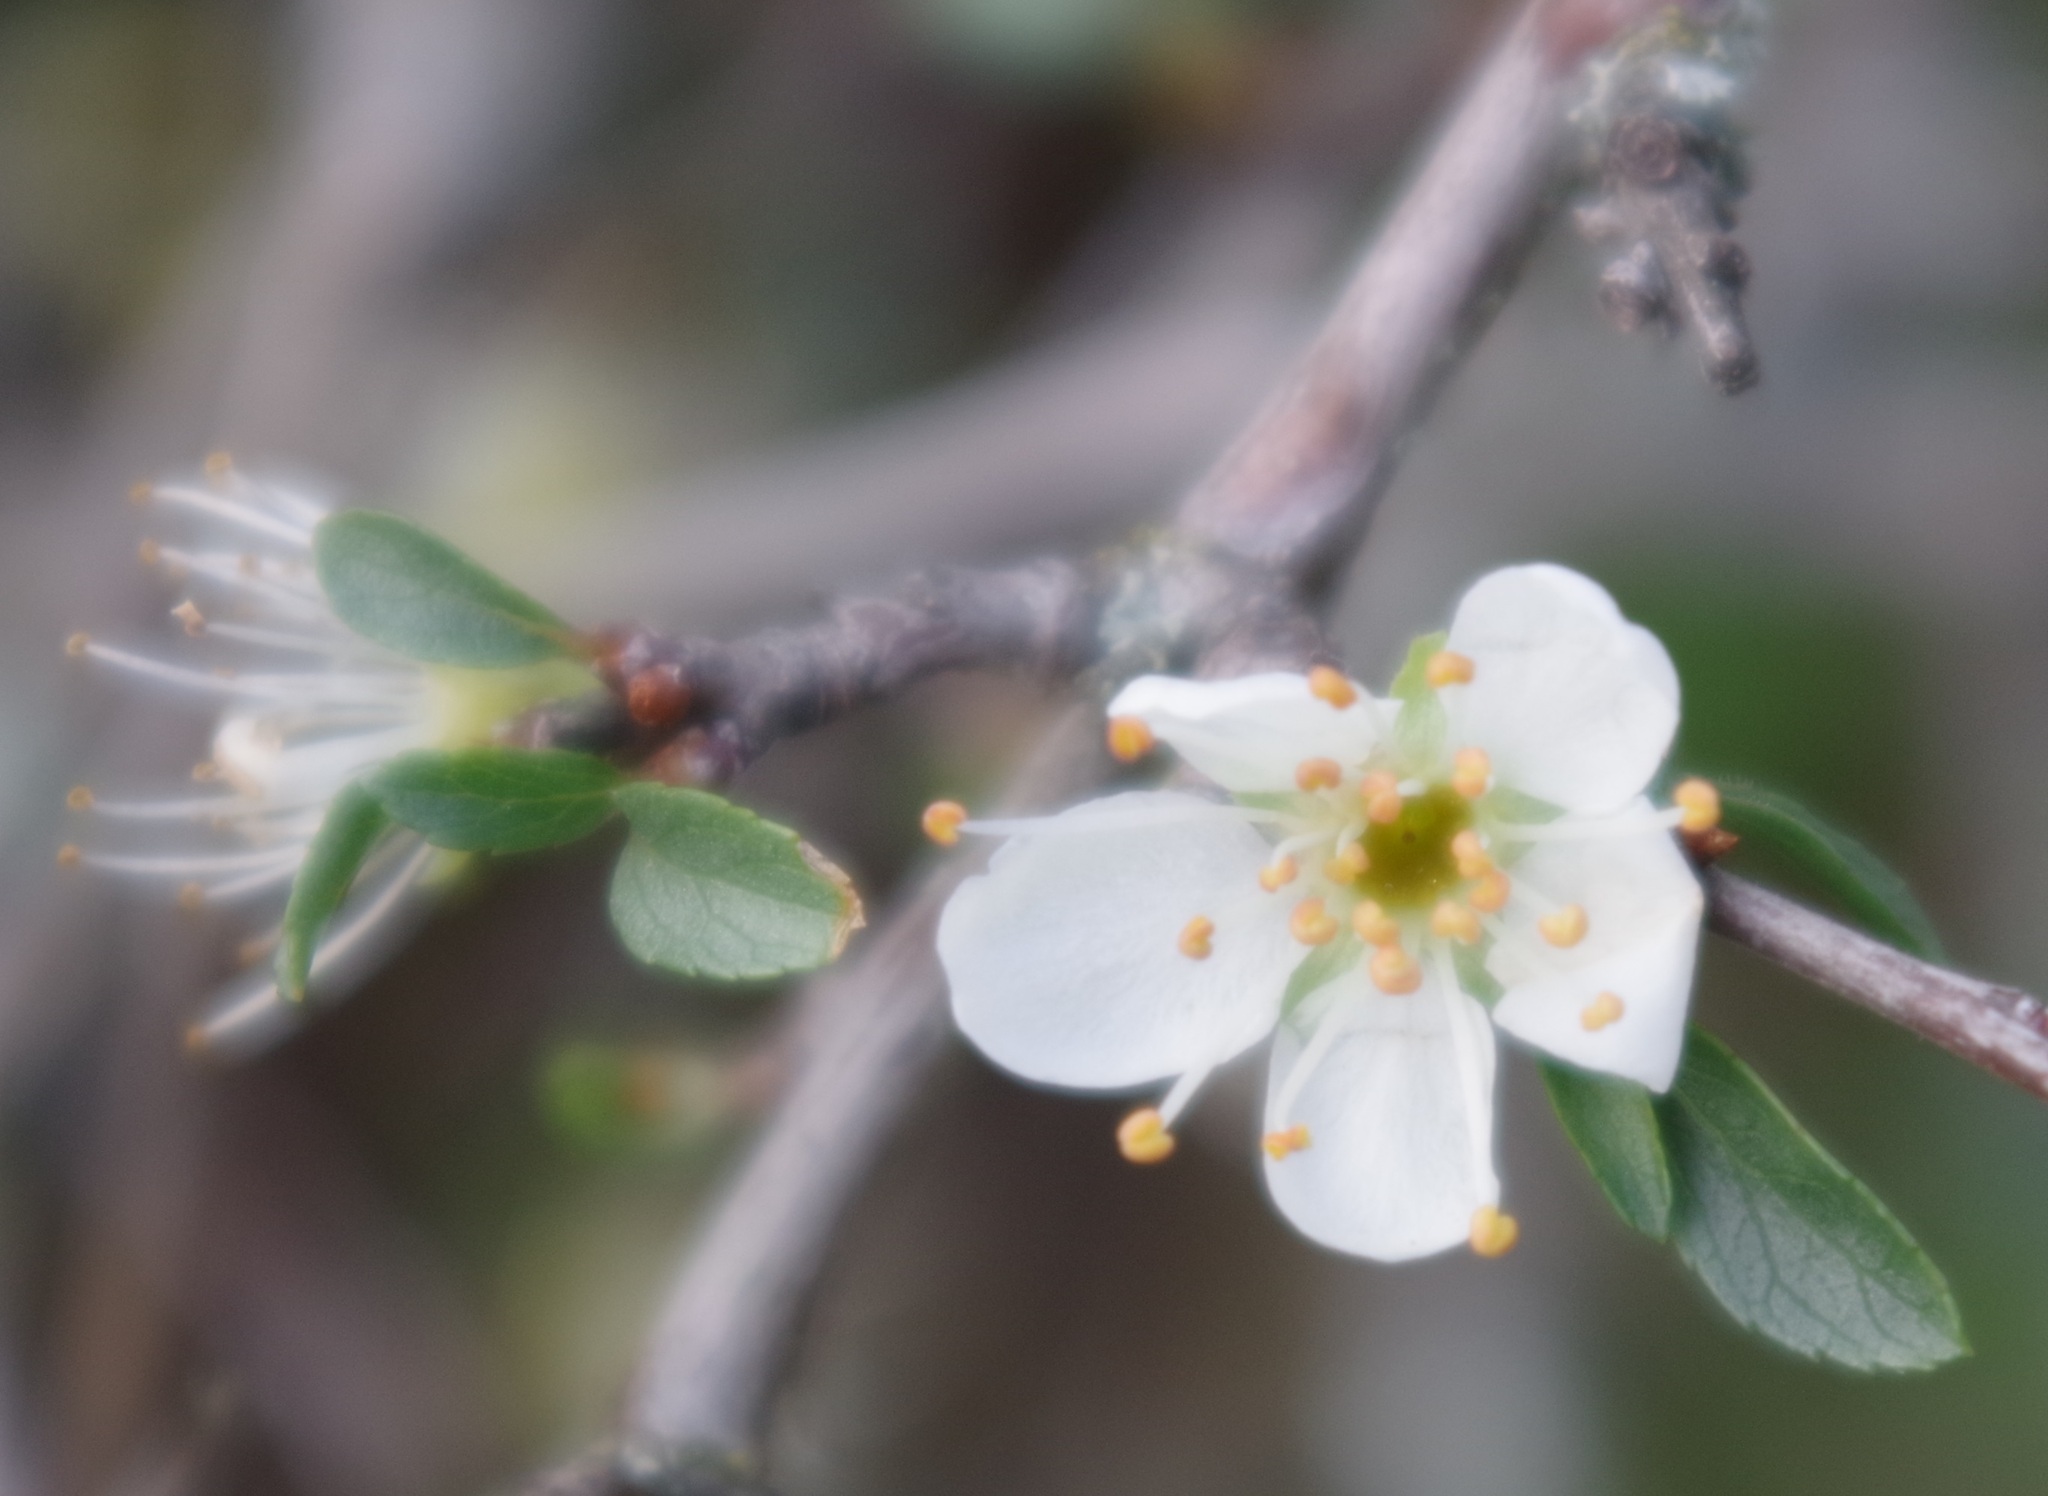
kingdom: Plantae
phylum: Tracheophyta
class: Magnoliopsida
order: Rosales
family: Rosaceae
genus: Prunus
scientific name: Prunus spinosa
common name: Blackthorn
